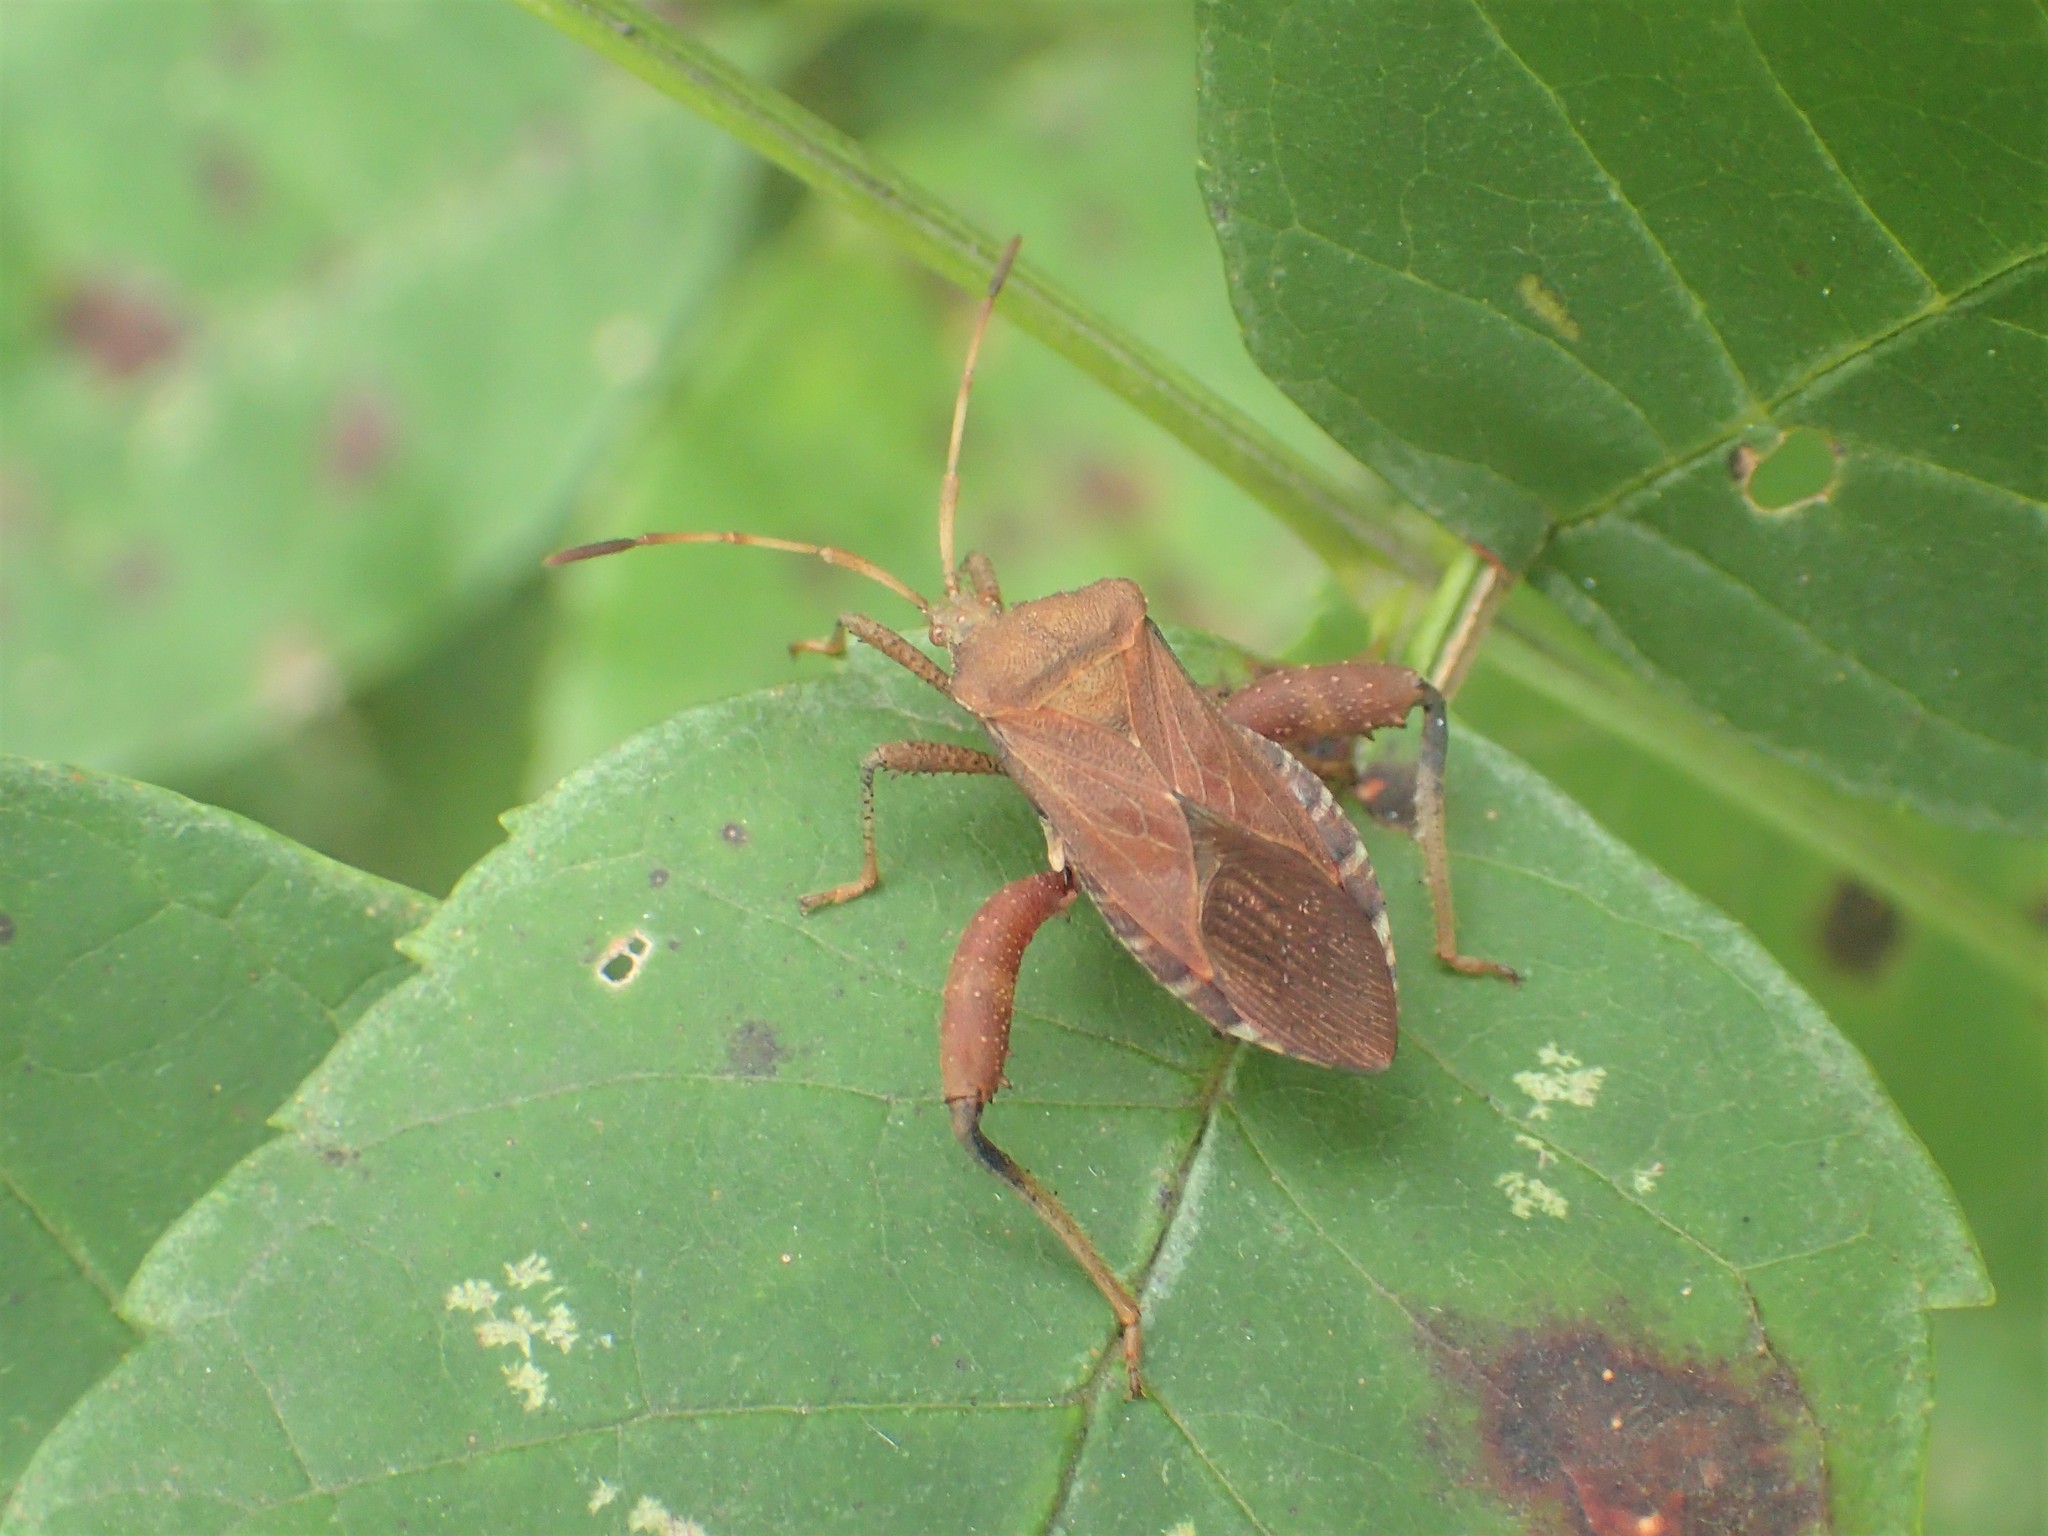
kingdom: Animalia
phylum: Arthropoda
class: Insecta
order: Hemiptera
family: Coreidae
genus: Euthochtha
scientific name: Euthochtha galeator
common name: Helmeted squash bug
